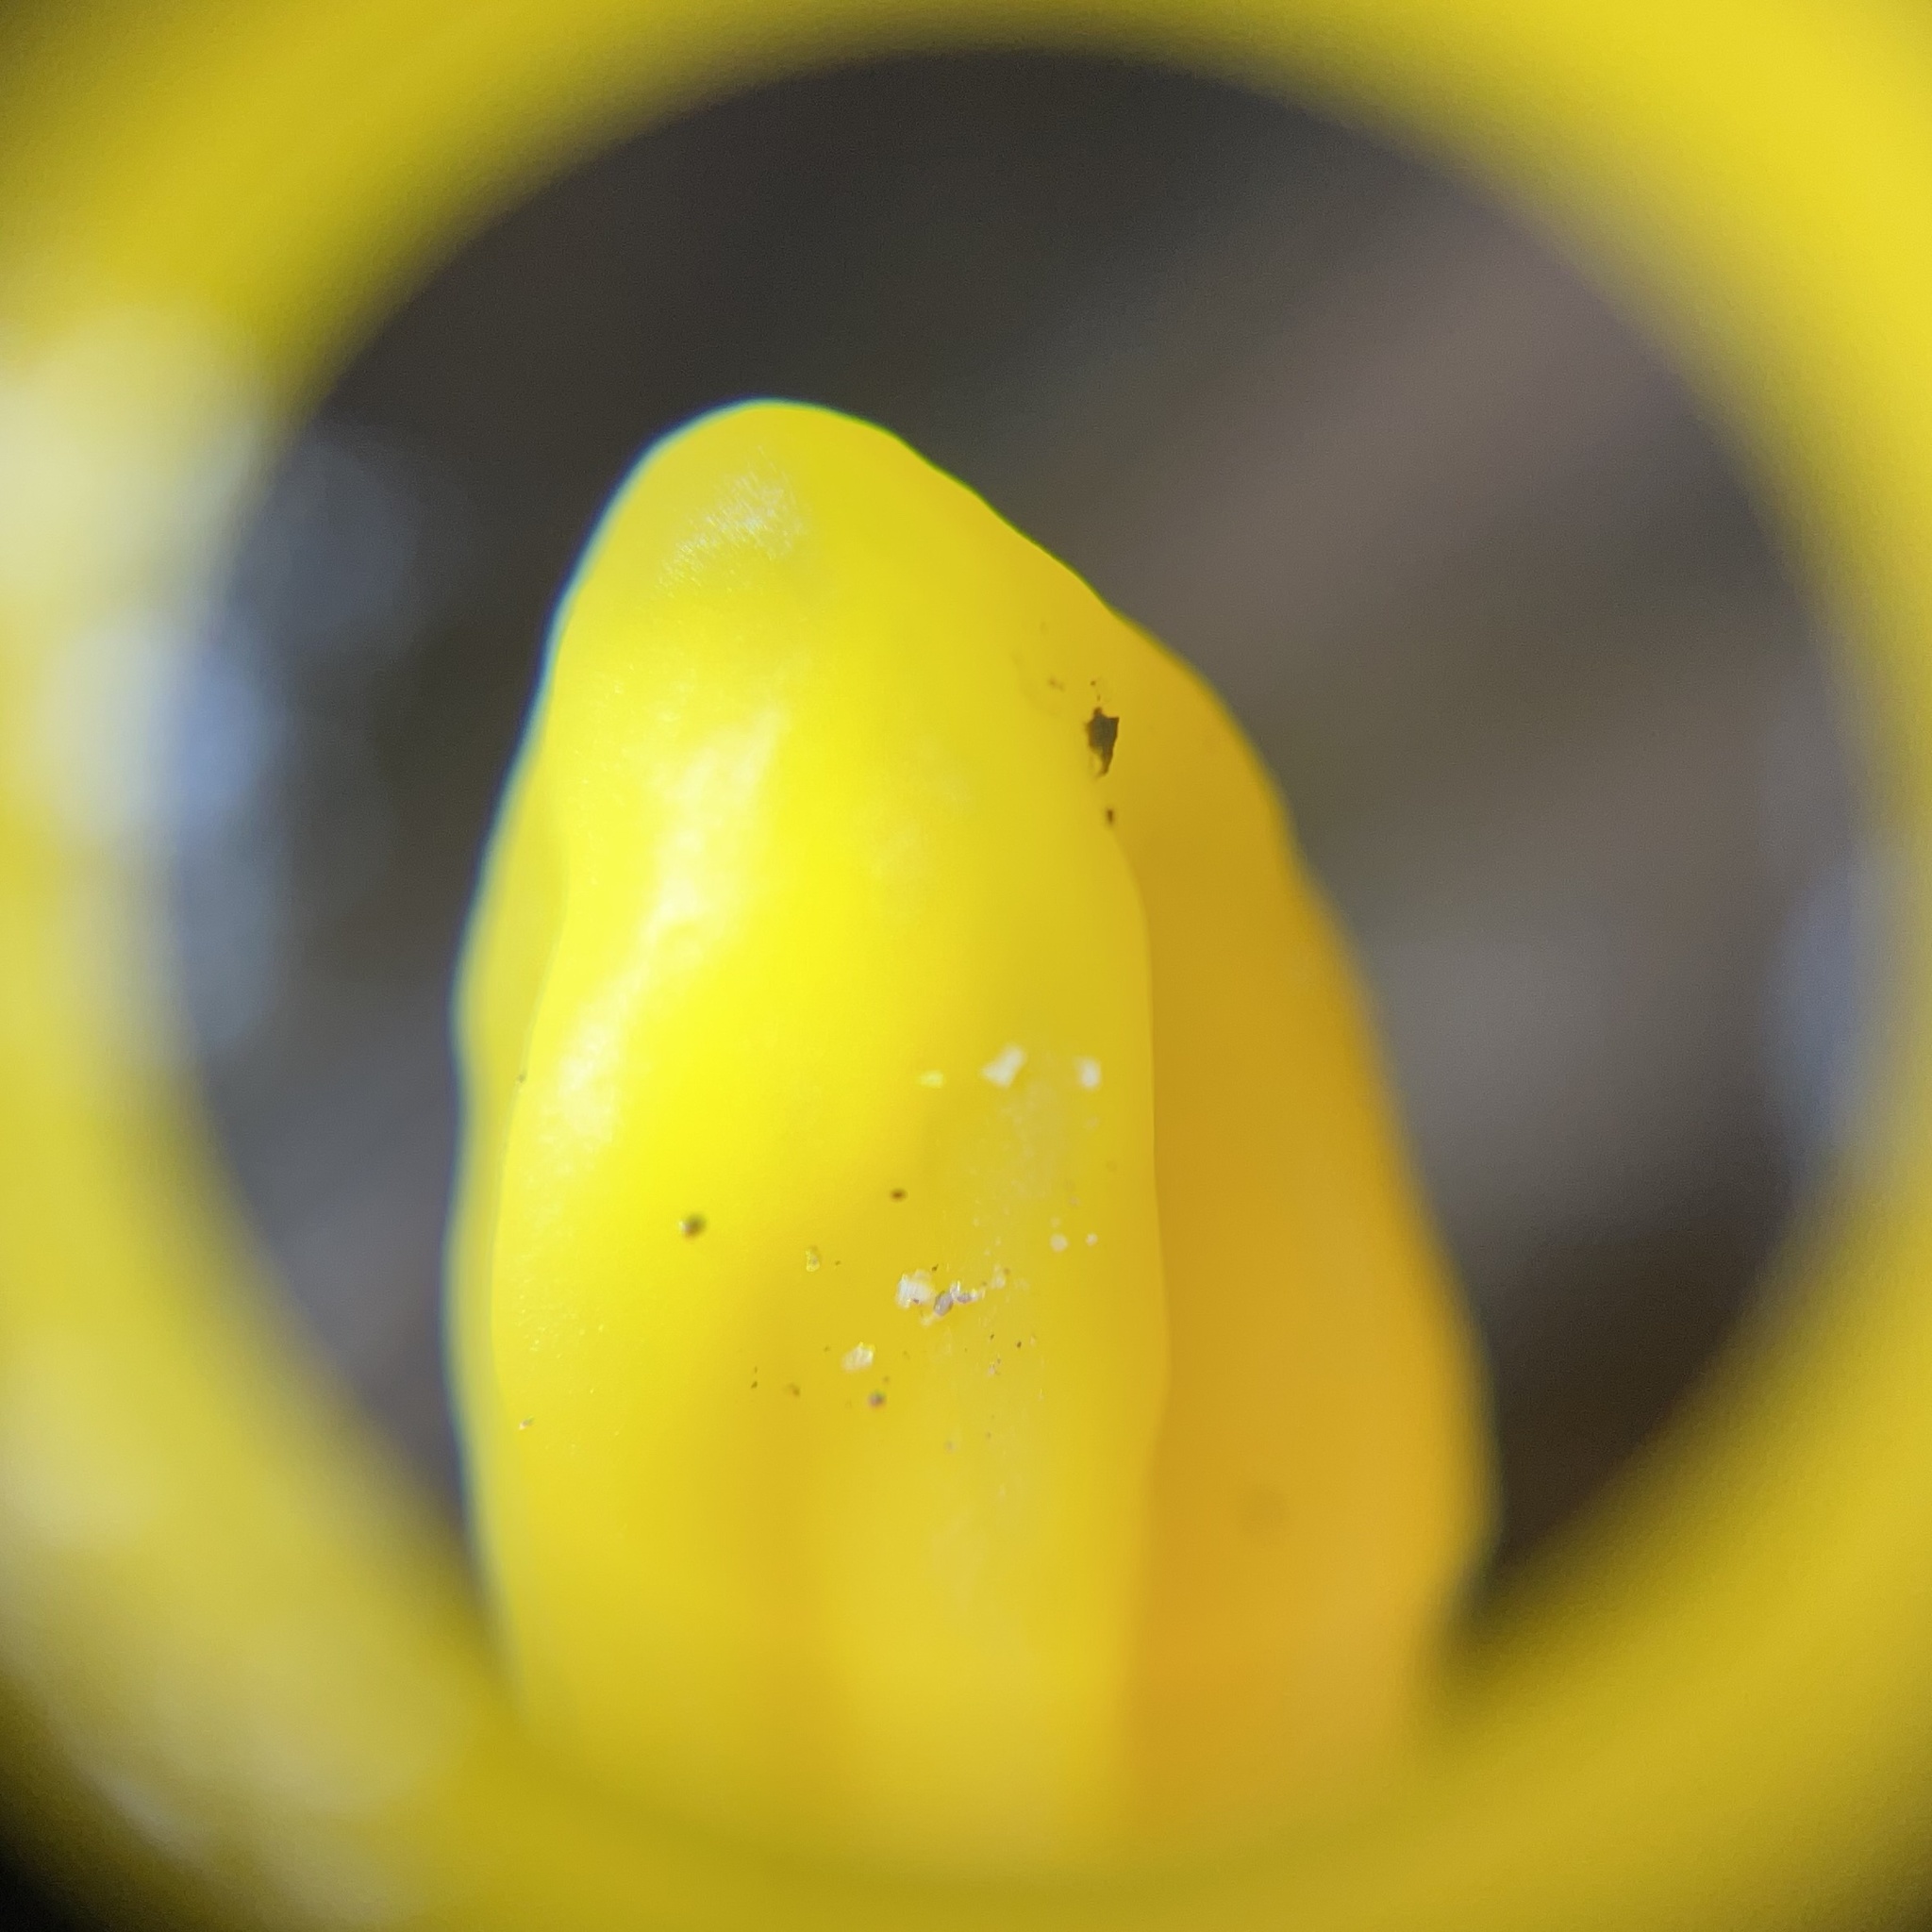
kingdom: Fungi
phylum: Ascomycota
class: Neolectomycetes
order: Neolectales
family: Neolectaceae
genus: Neolecta
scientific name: Neolecta irregularis
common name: Irregular earth tongue
